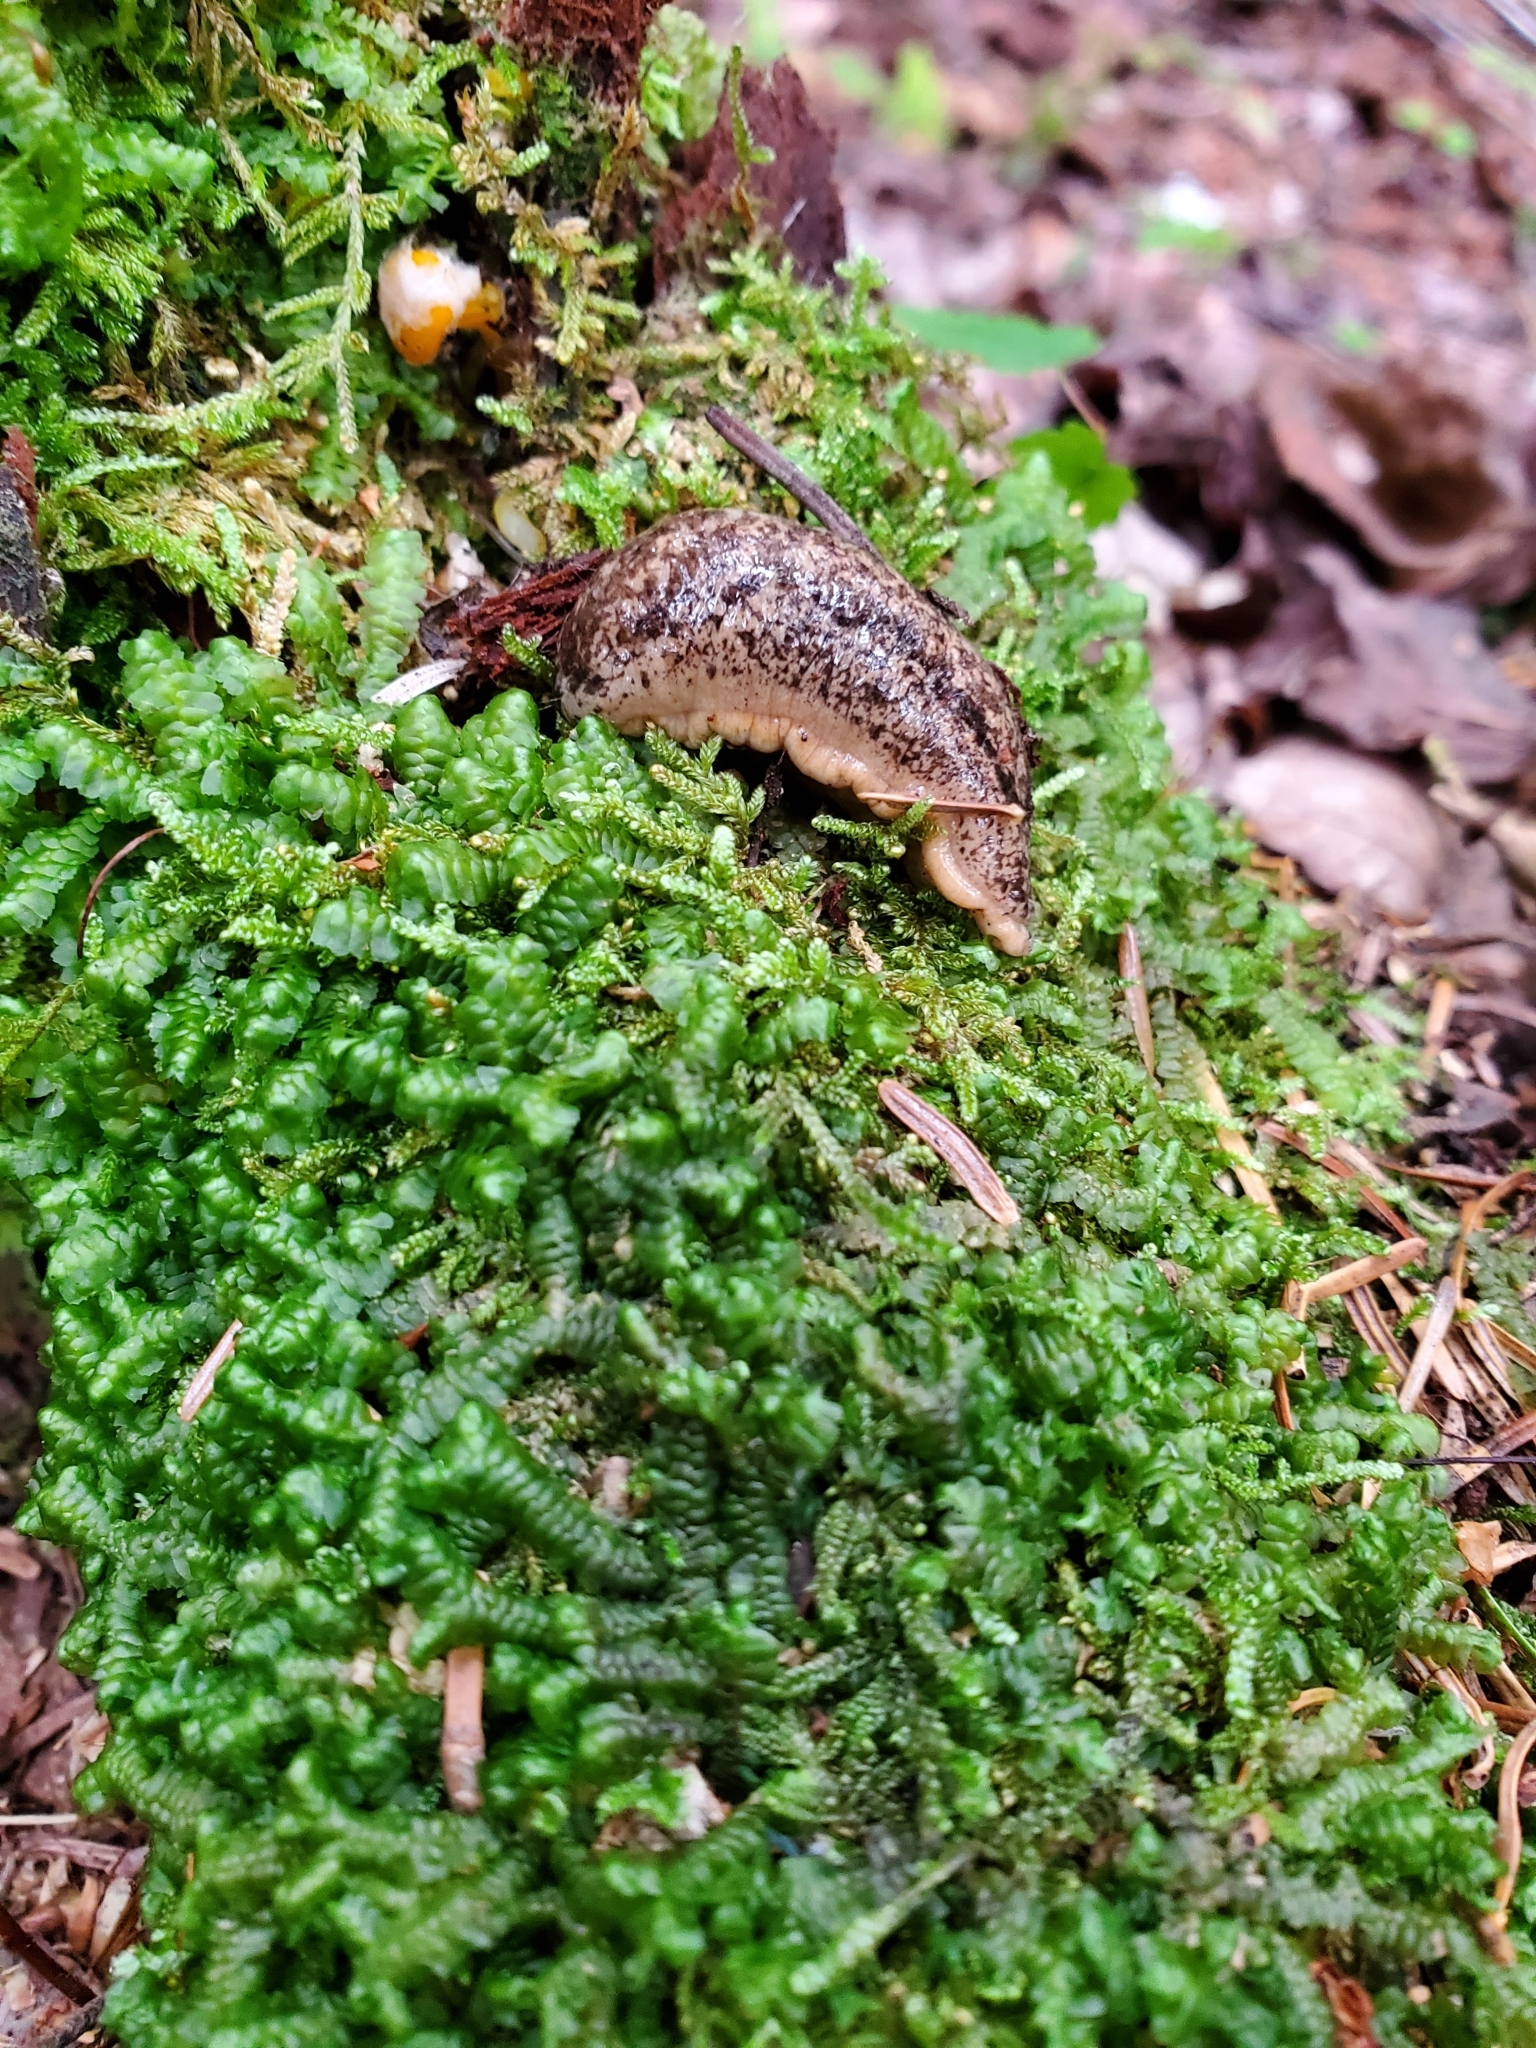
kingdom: Animalia
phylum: Mollusca
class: Gastropoda
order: Stylommatophora
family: Philomycidae
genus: Philomycus
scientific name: Philomycus flexuolaris
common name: Winding mantleslug
